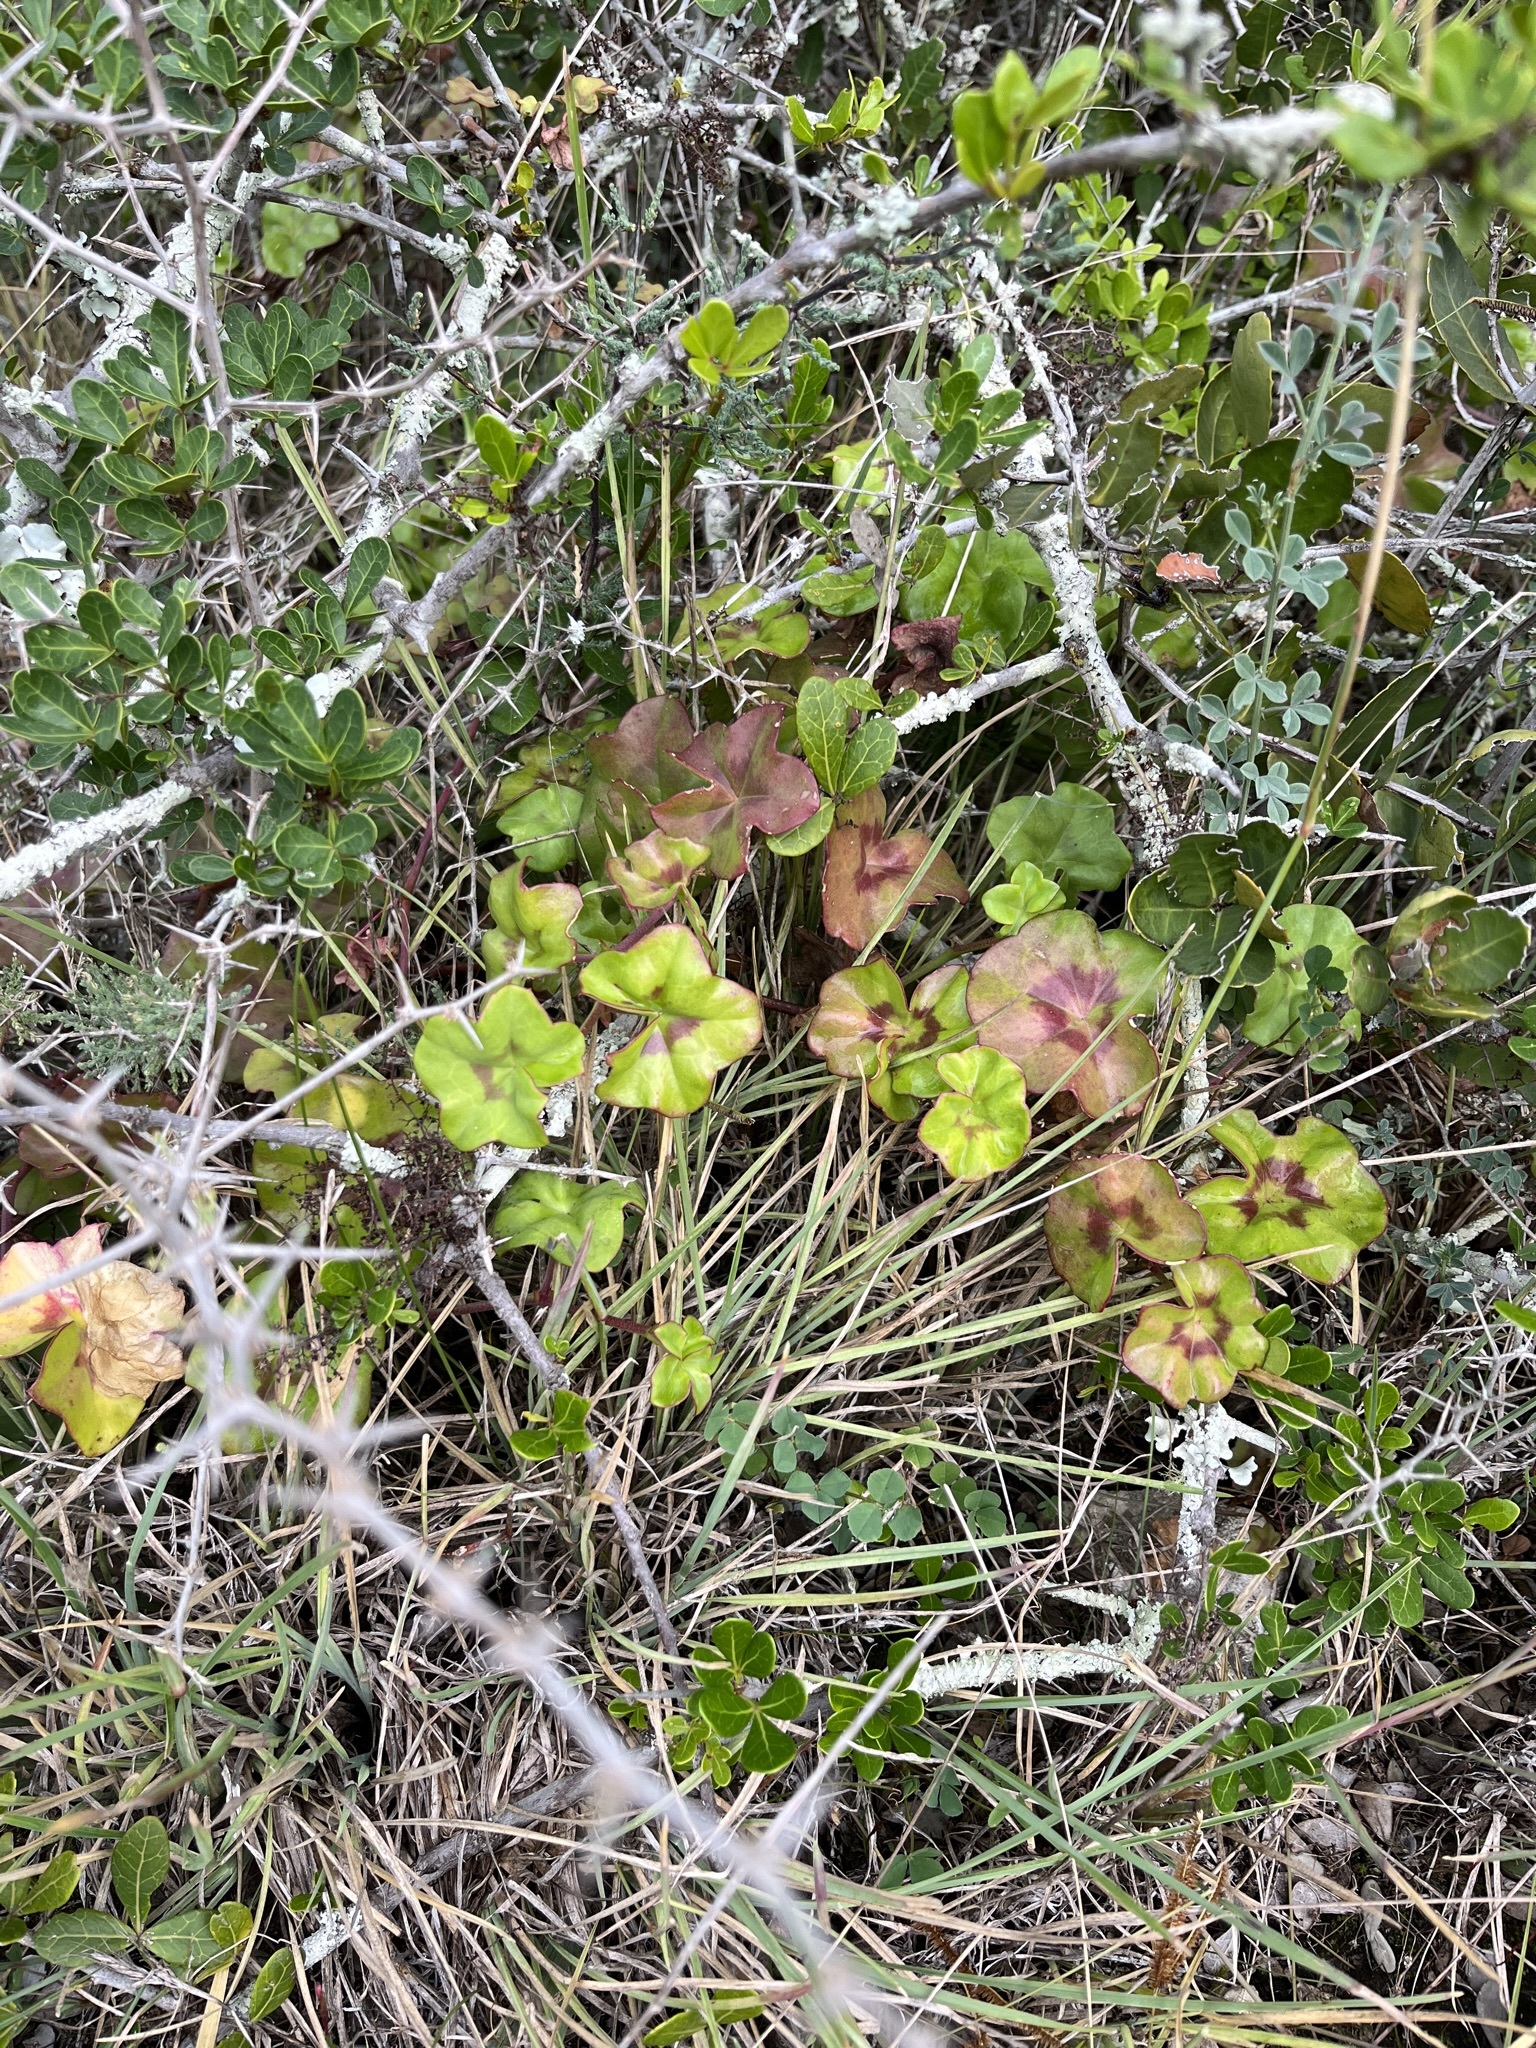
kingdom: Plantae
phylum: Tracheophyta
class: Magnoliopsida
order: Geraniales
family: Geraniaceae
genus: Pelargonium
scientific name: Pelargonium peltatum
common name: Ivyleaf geranium
